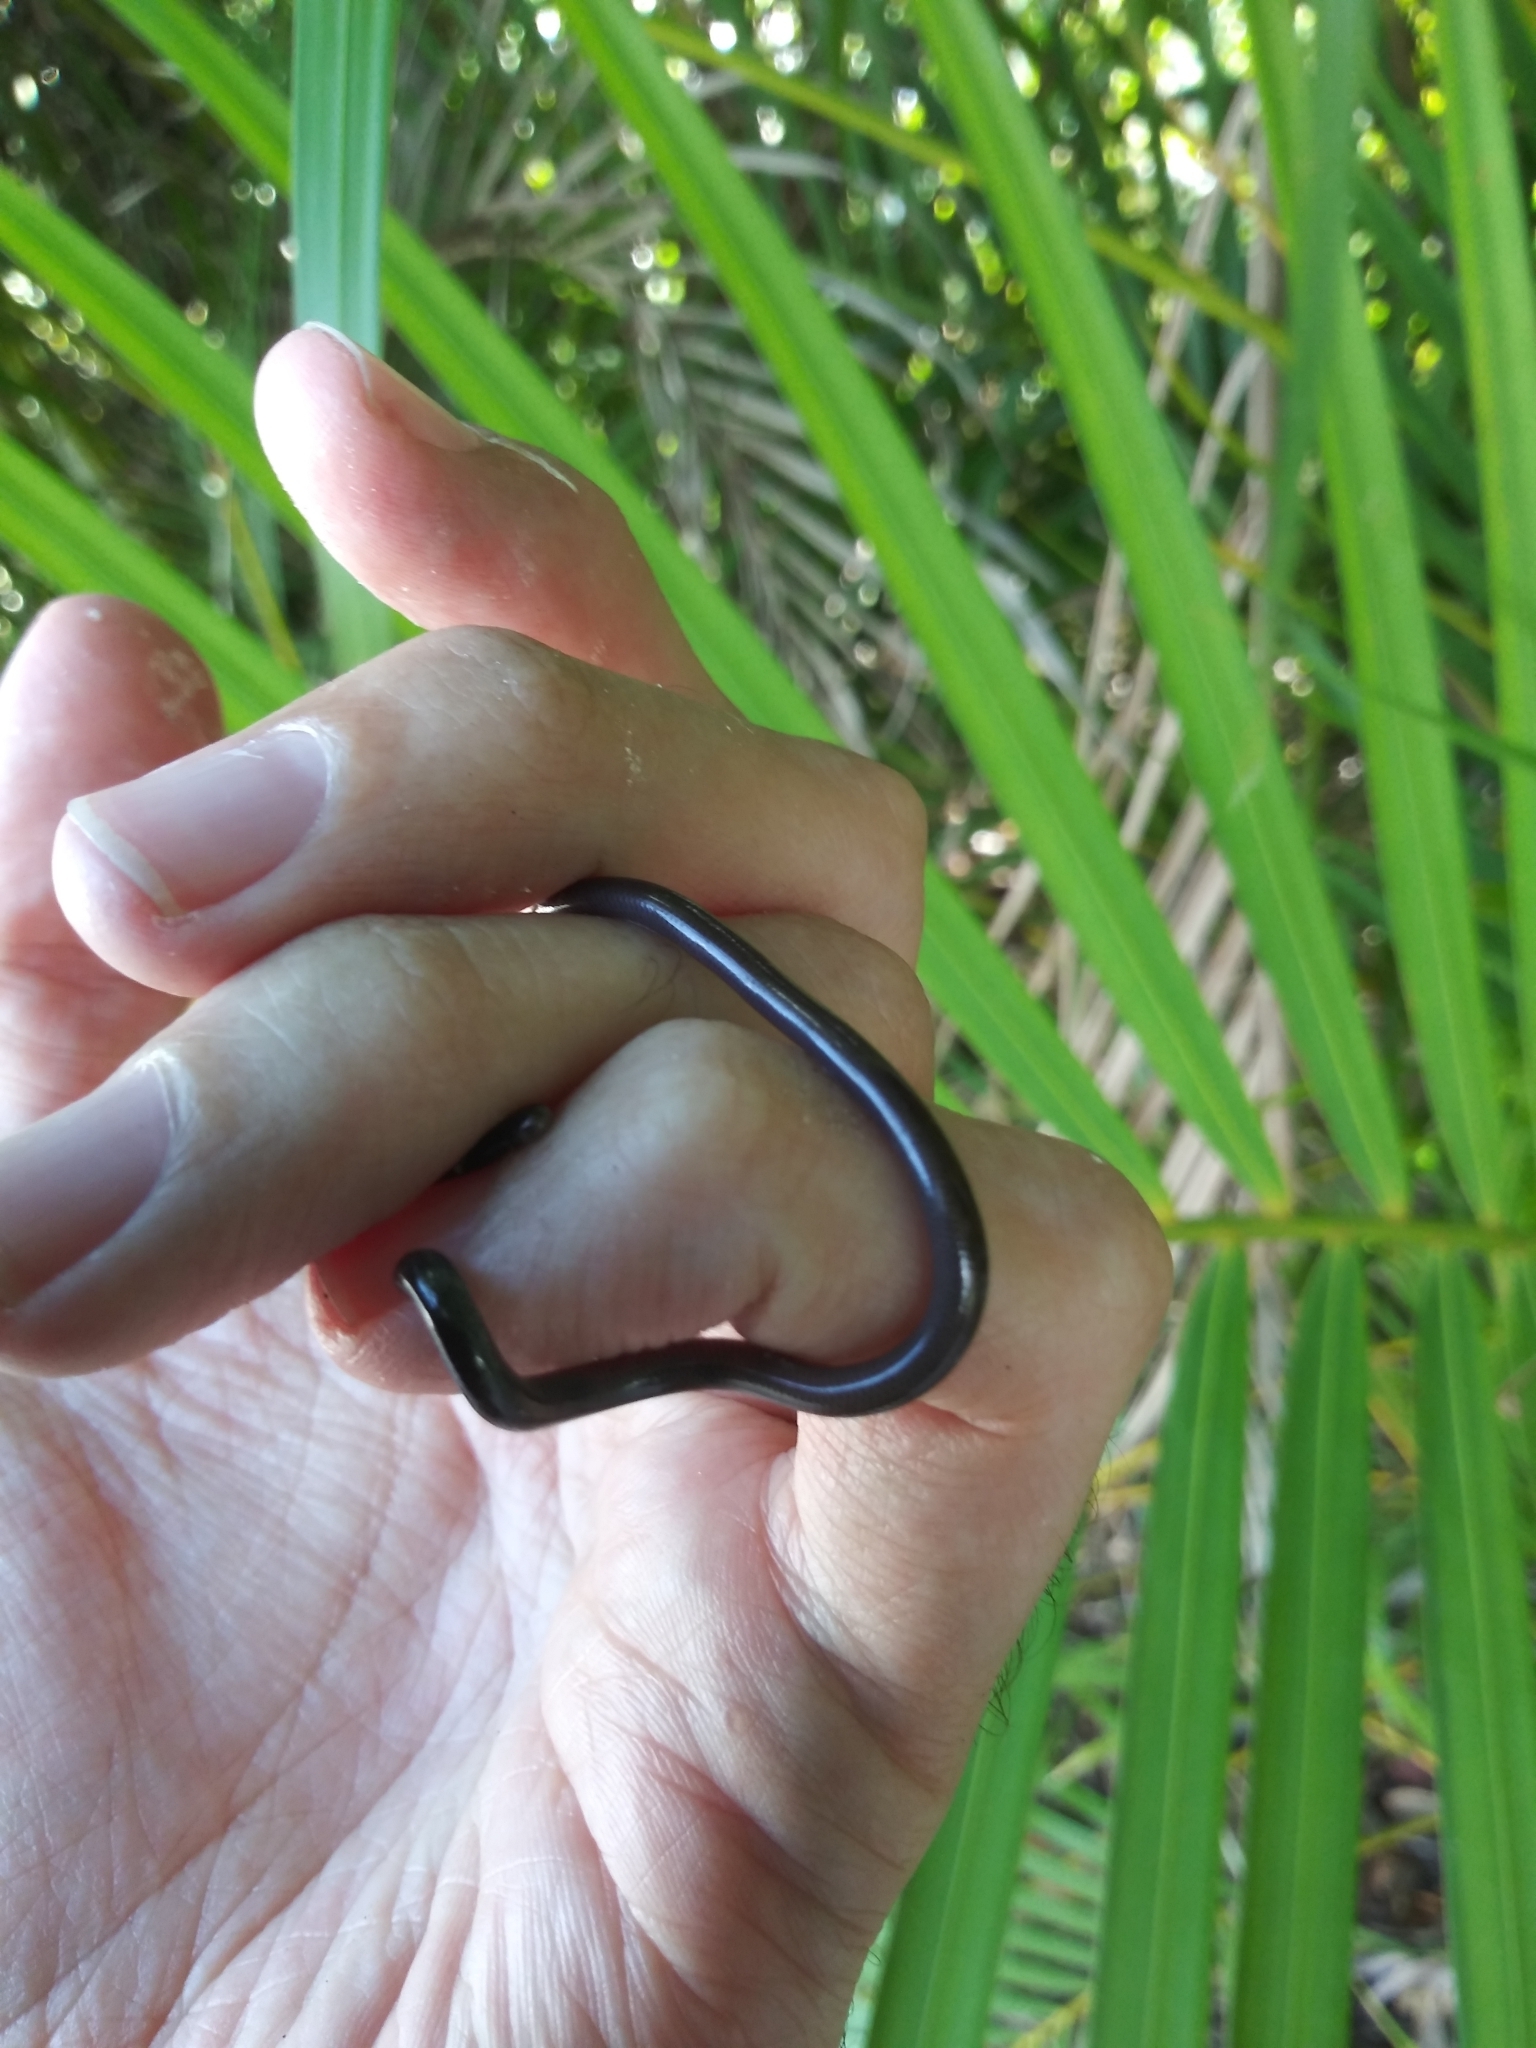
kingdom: Animalia
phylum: Chordata
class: Squamata
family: Typhlopidae
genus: Indotyphlops
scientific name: Indotyphlops braminus
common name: Brahminy blindsnake
